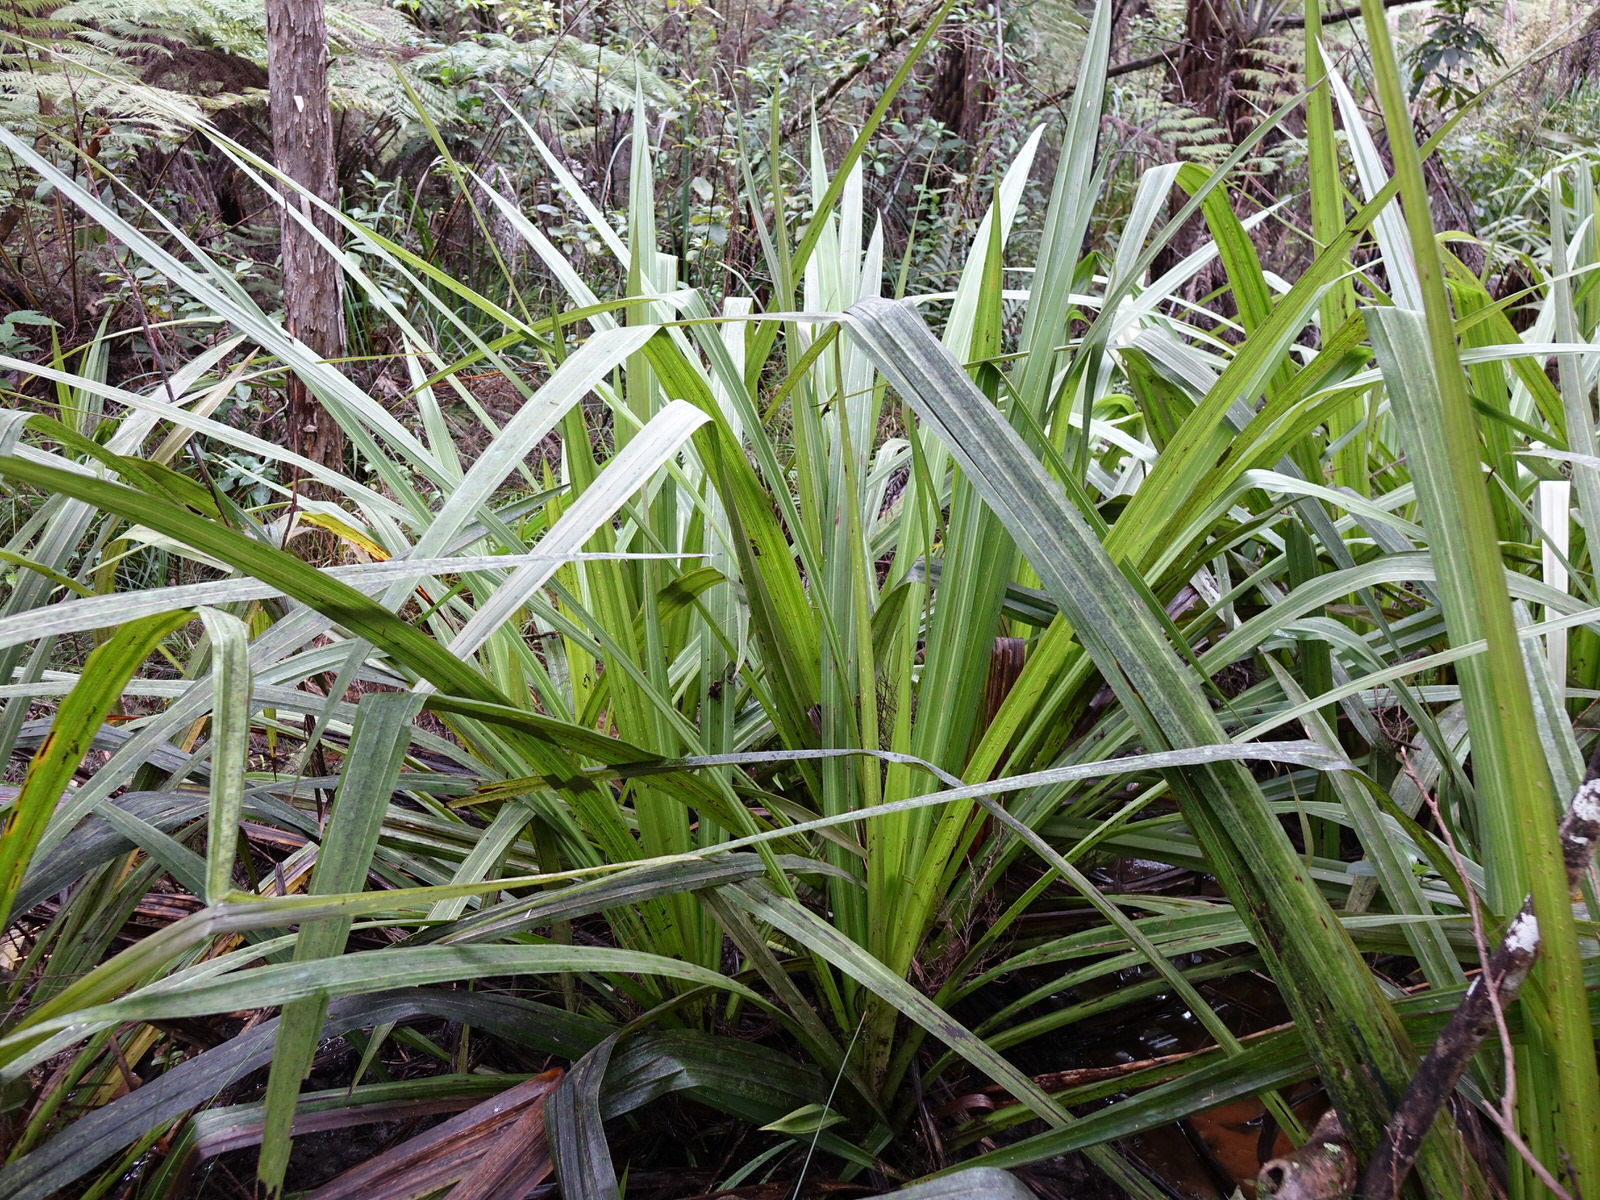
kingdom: Plantae
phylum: Tracheophyta
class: Liliopsida
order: Asparagales
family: Asteliaceae
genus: Astelia
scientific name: Astelia grandis
